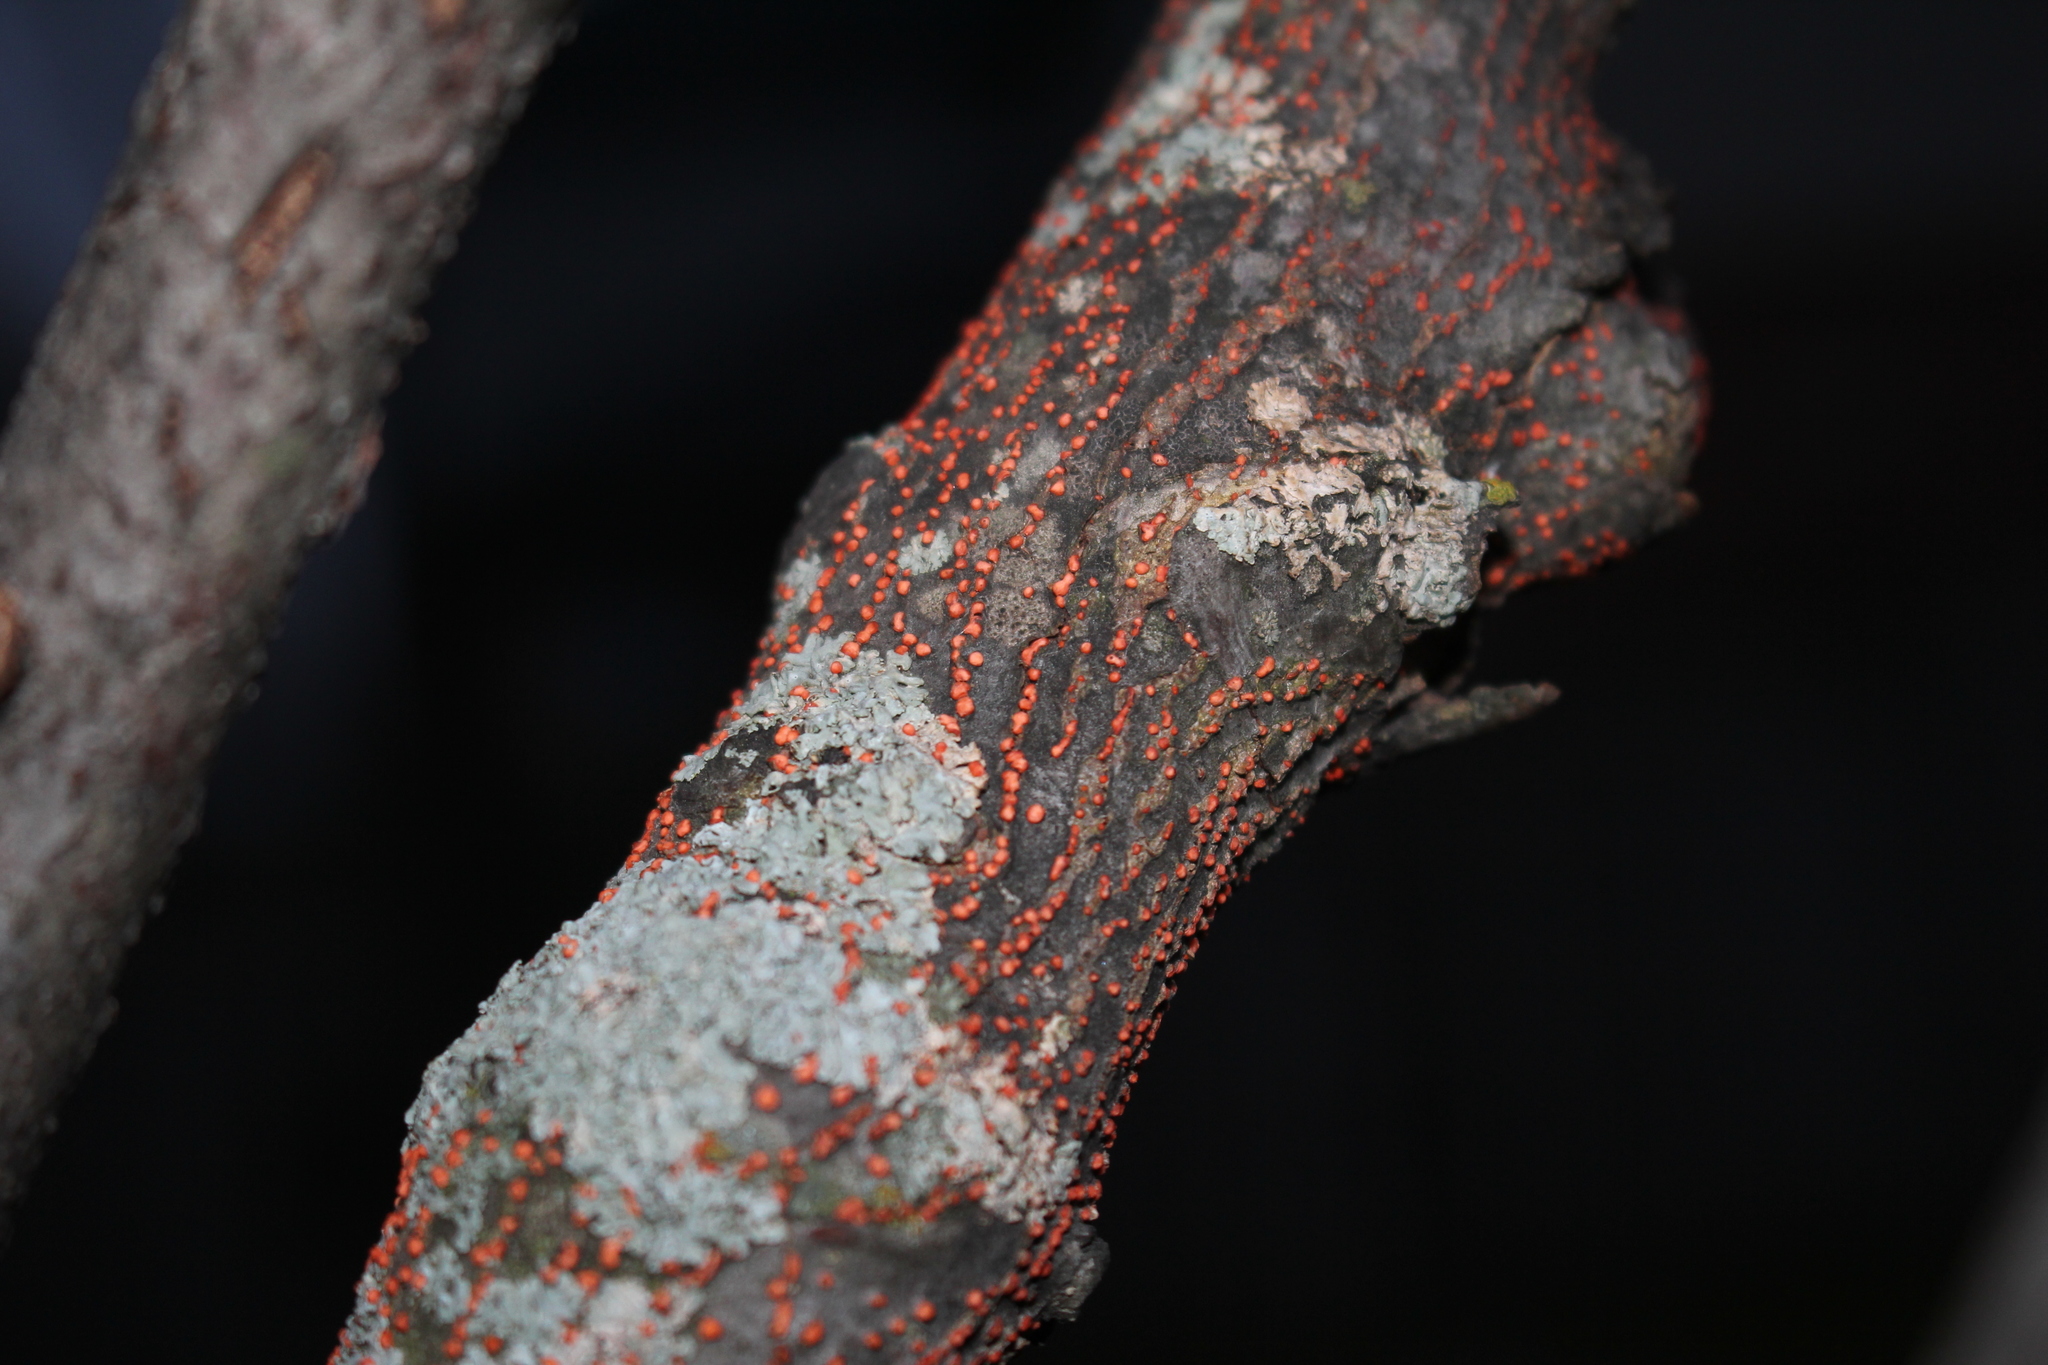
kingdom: Fungi
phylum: Ascomycota
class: Sordariomycetes
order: Hypocreales
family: Nectriaceae
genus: Nectria
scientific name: Nectria cinnabarina
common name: Coral spot
